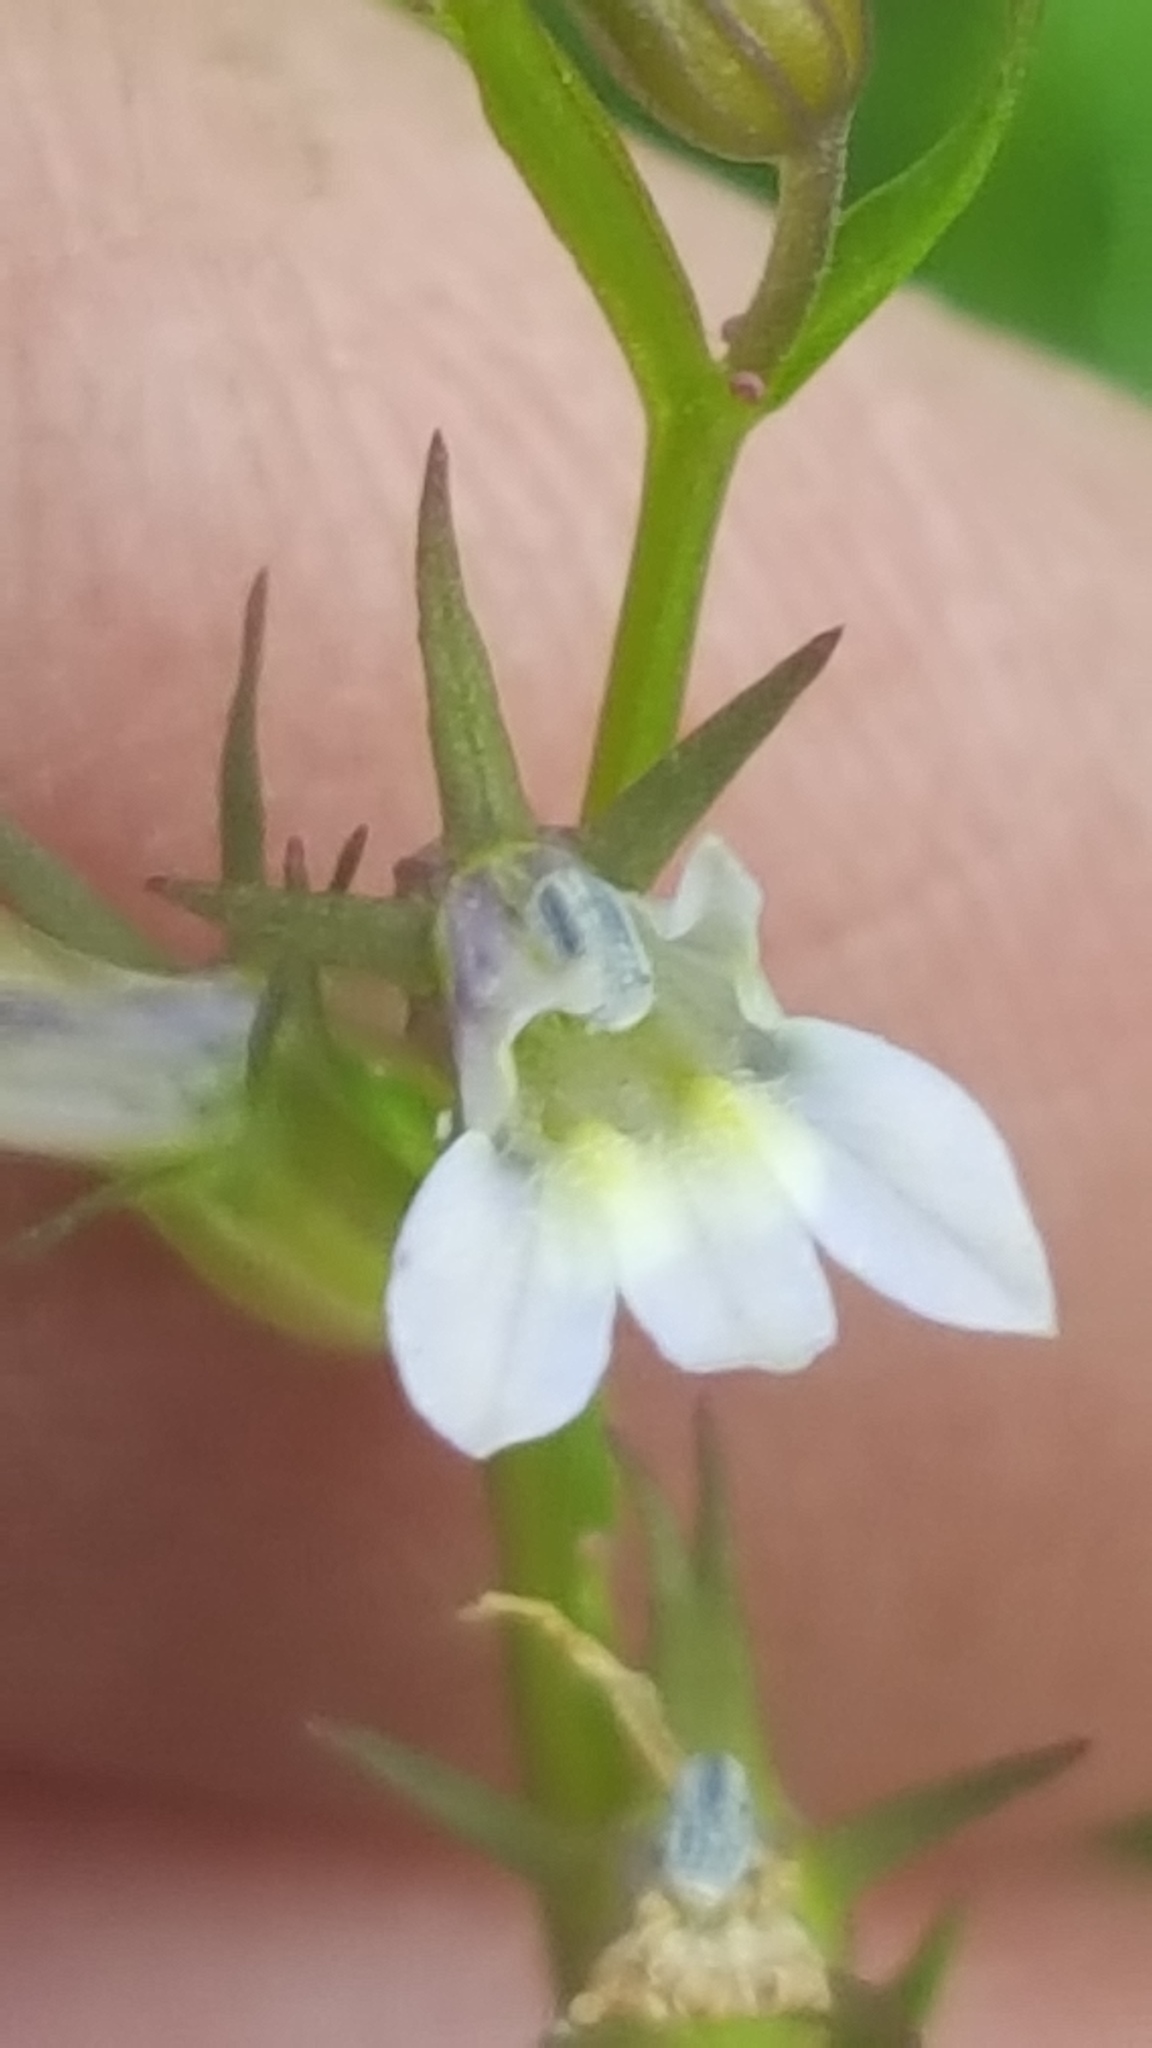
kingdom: Plantae
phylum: Tracheophyta
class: Magnoliopsida
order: Asterales
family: Campanulaceae
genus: Lobelia
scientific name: Lobelia inflata
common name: Indian tobacco
